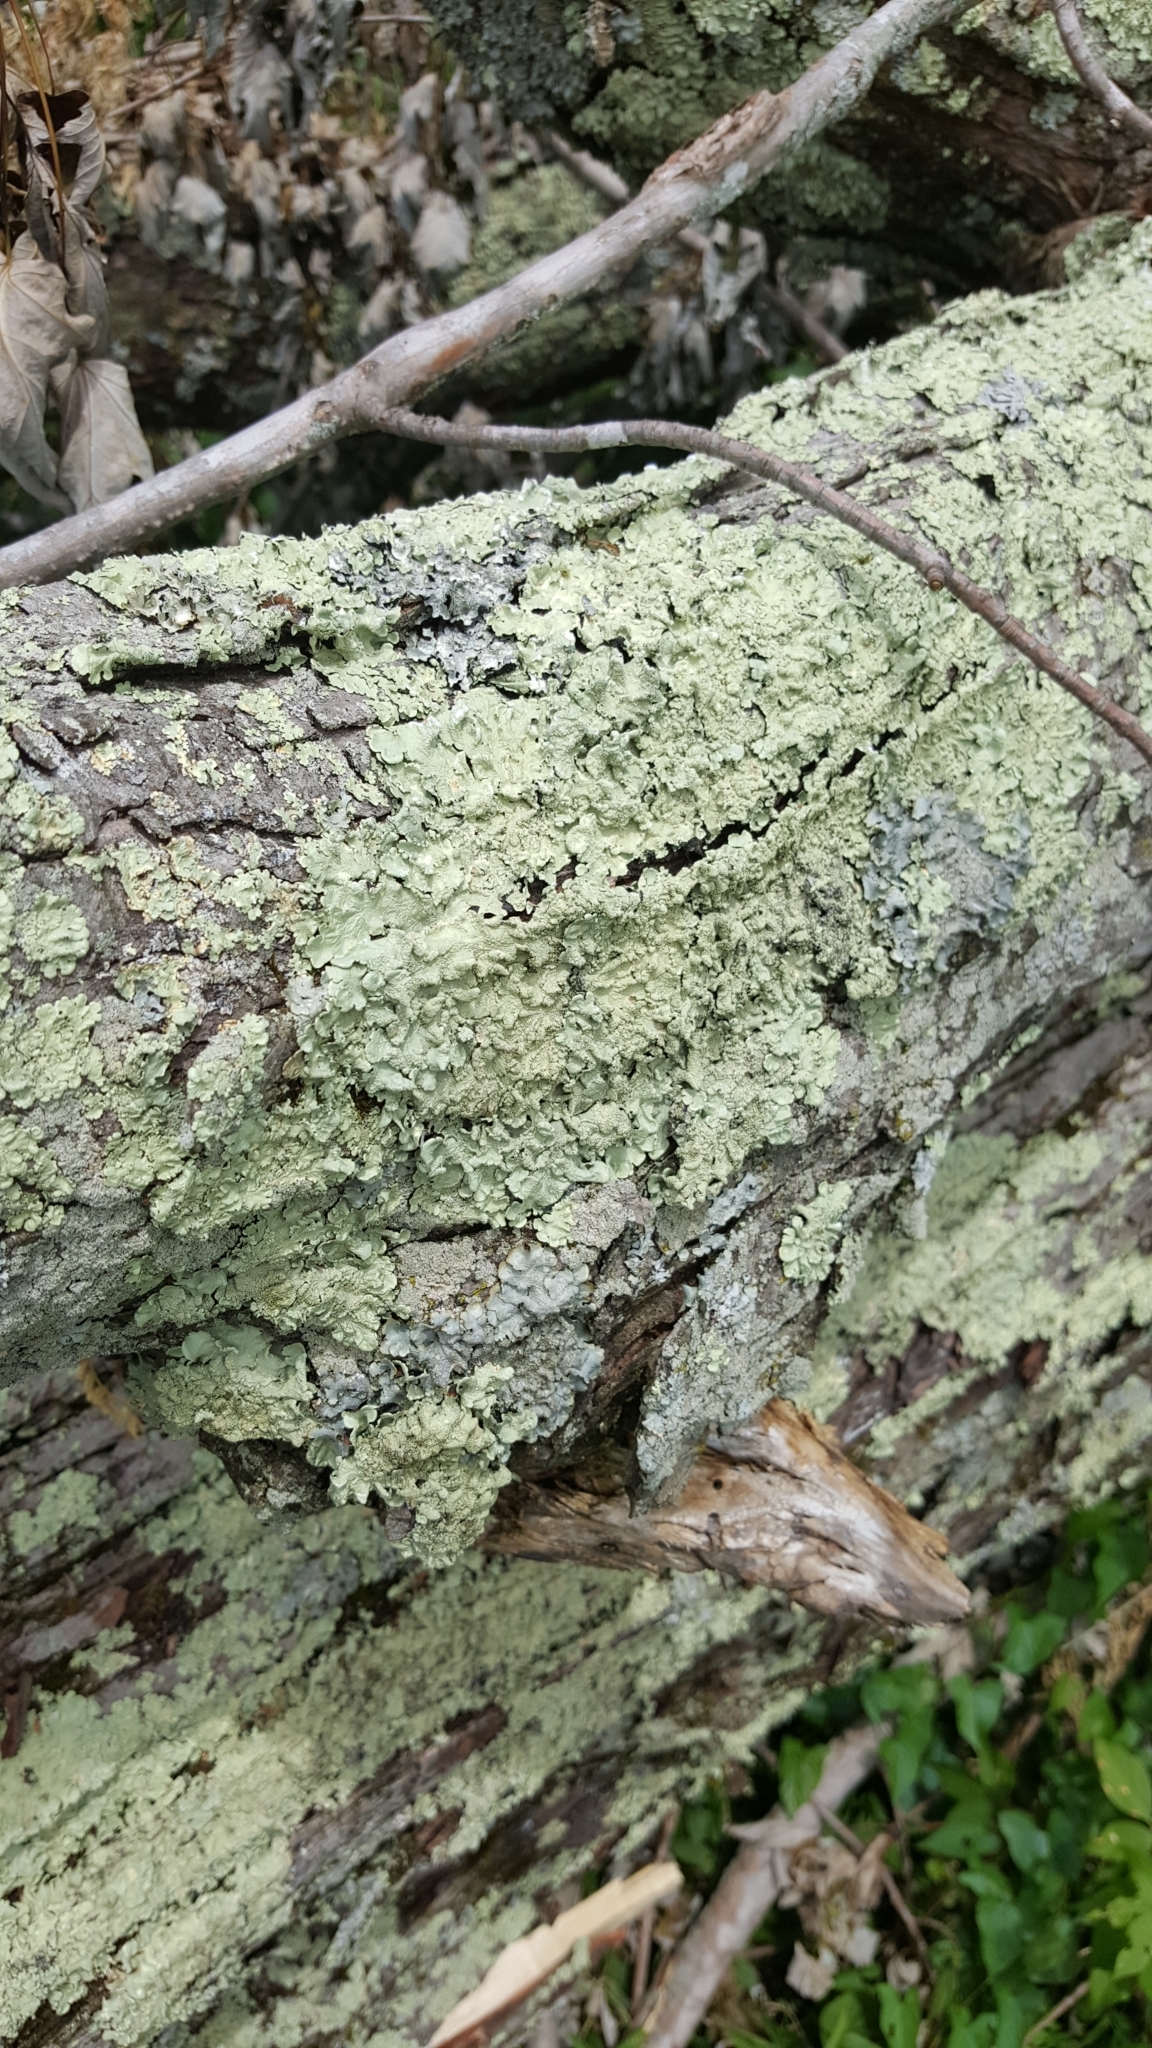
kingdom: Fungi
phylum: Ascomycota
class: Lecanoromycetes
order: Lecanorales
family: Parmeliaceae
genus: Flavoparmelia
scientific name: Flavoparmelia caperata
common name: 40-mile per hour lichen
